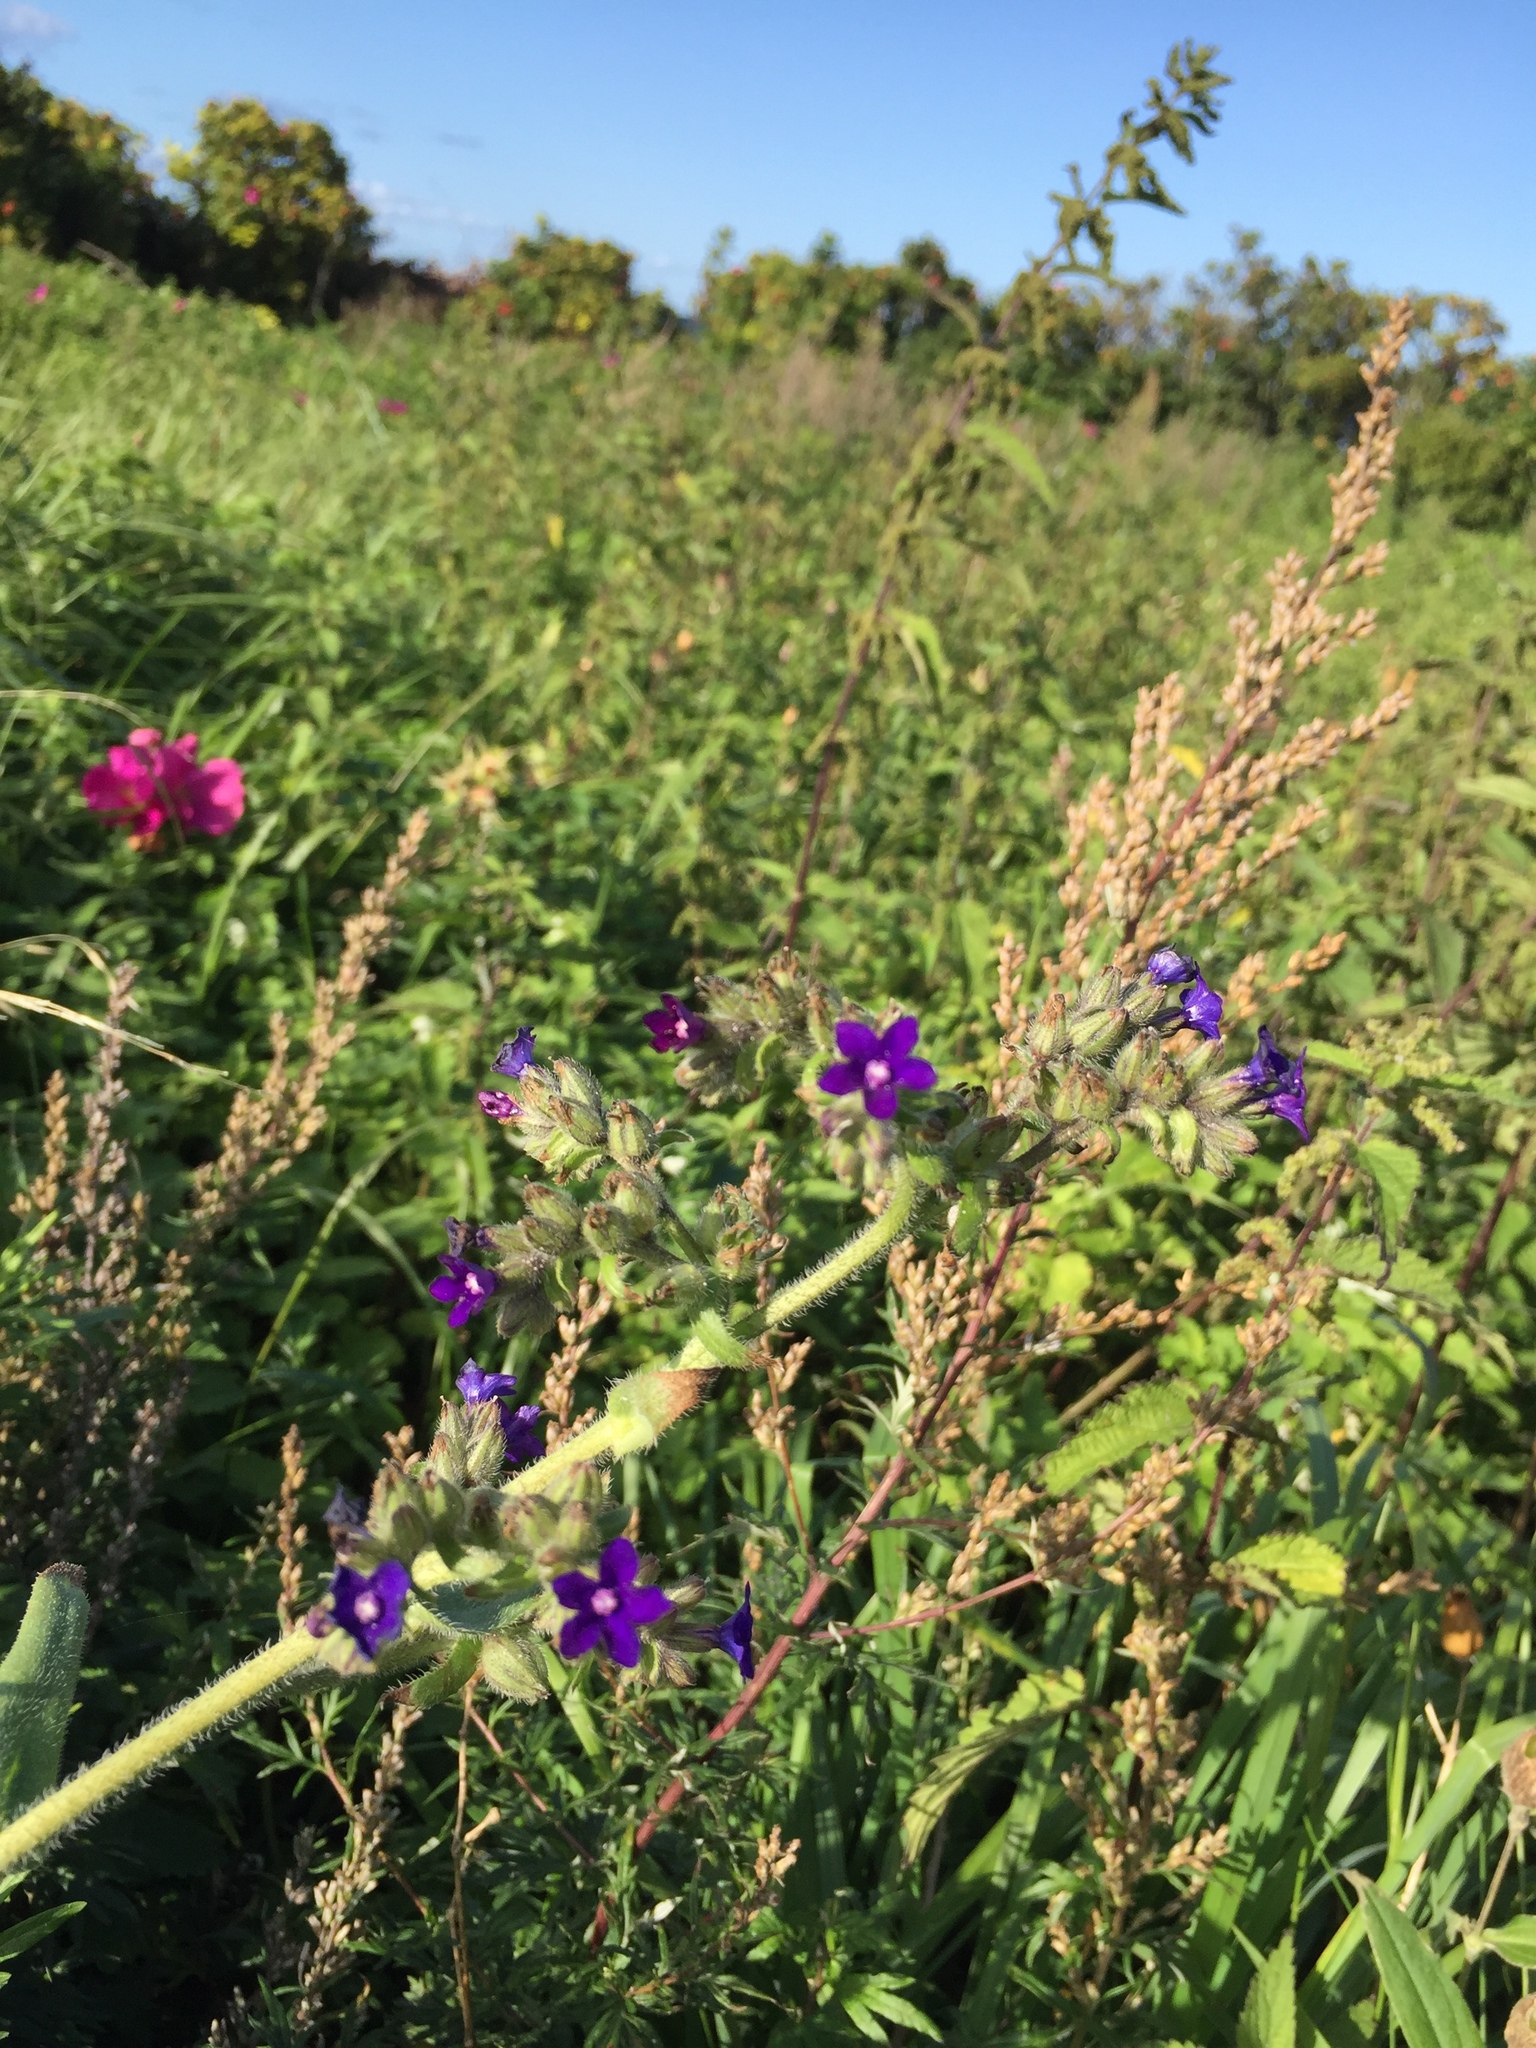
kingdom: Plantae
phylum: Tracheophyta
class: Magnoliopsida
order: Boraginales
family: Boraginaceae
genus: Anchusa
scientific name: Anchusa officinalis
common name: Alkanet
